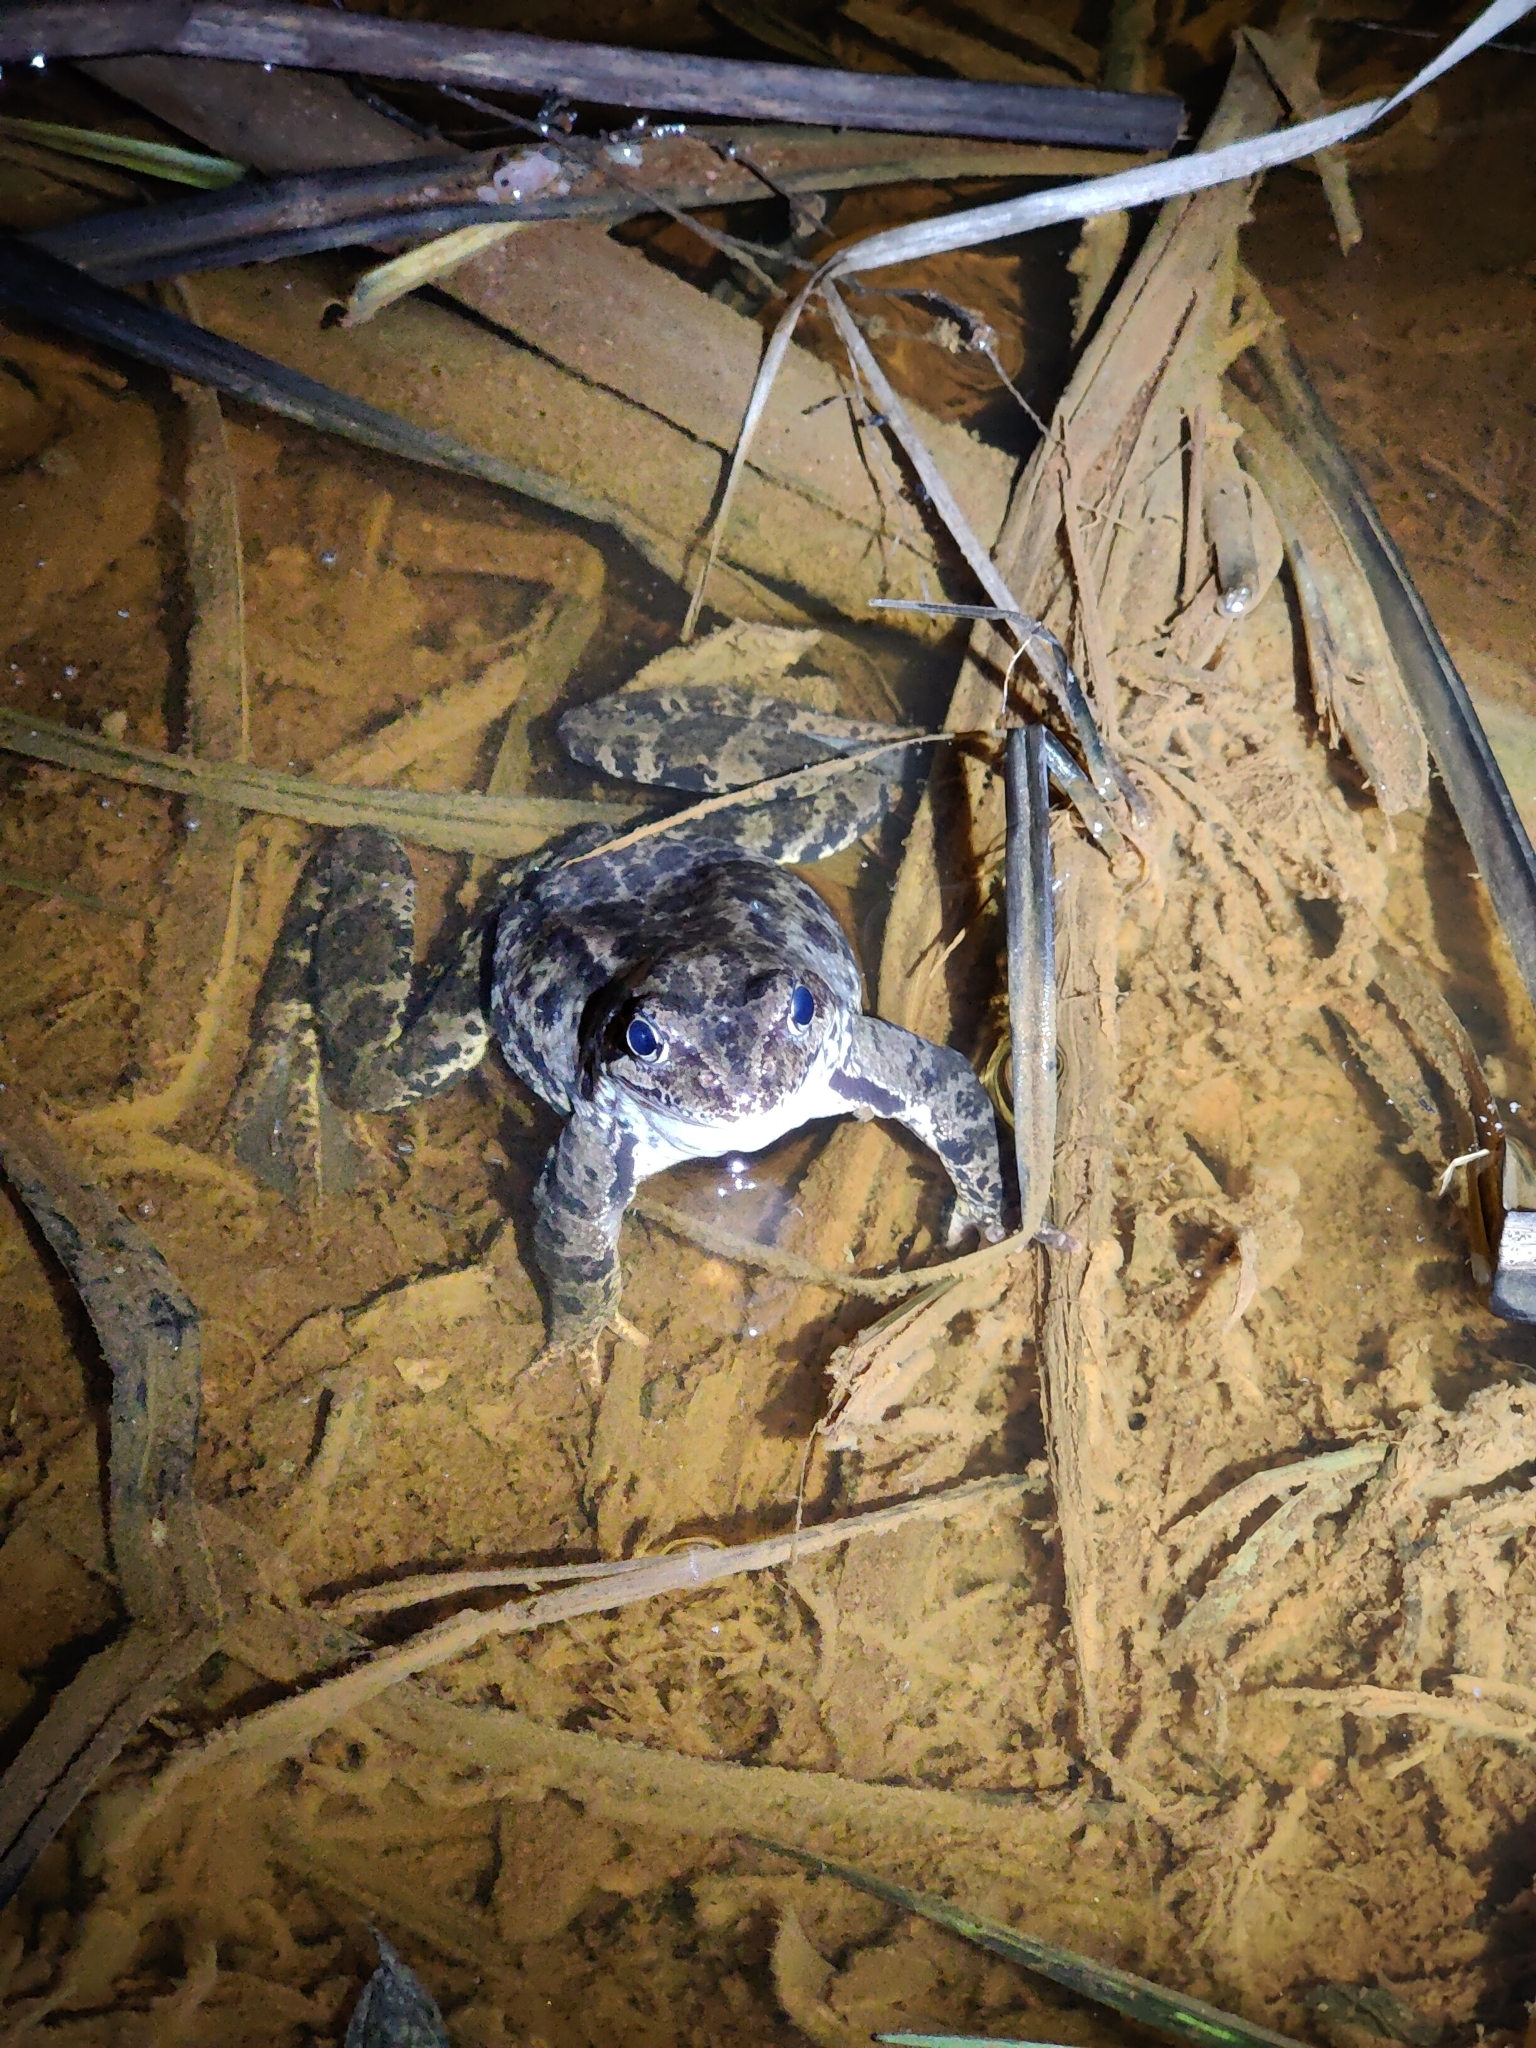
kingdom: Animalia
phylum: Chordata
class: Amphibia
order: Anura
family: Ranidae
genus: Rana
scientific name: Rana temporaria
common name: Common frog
